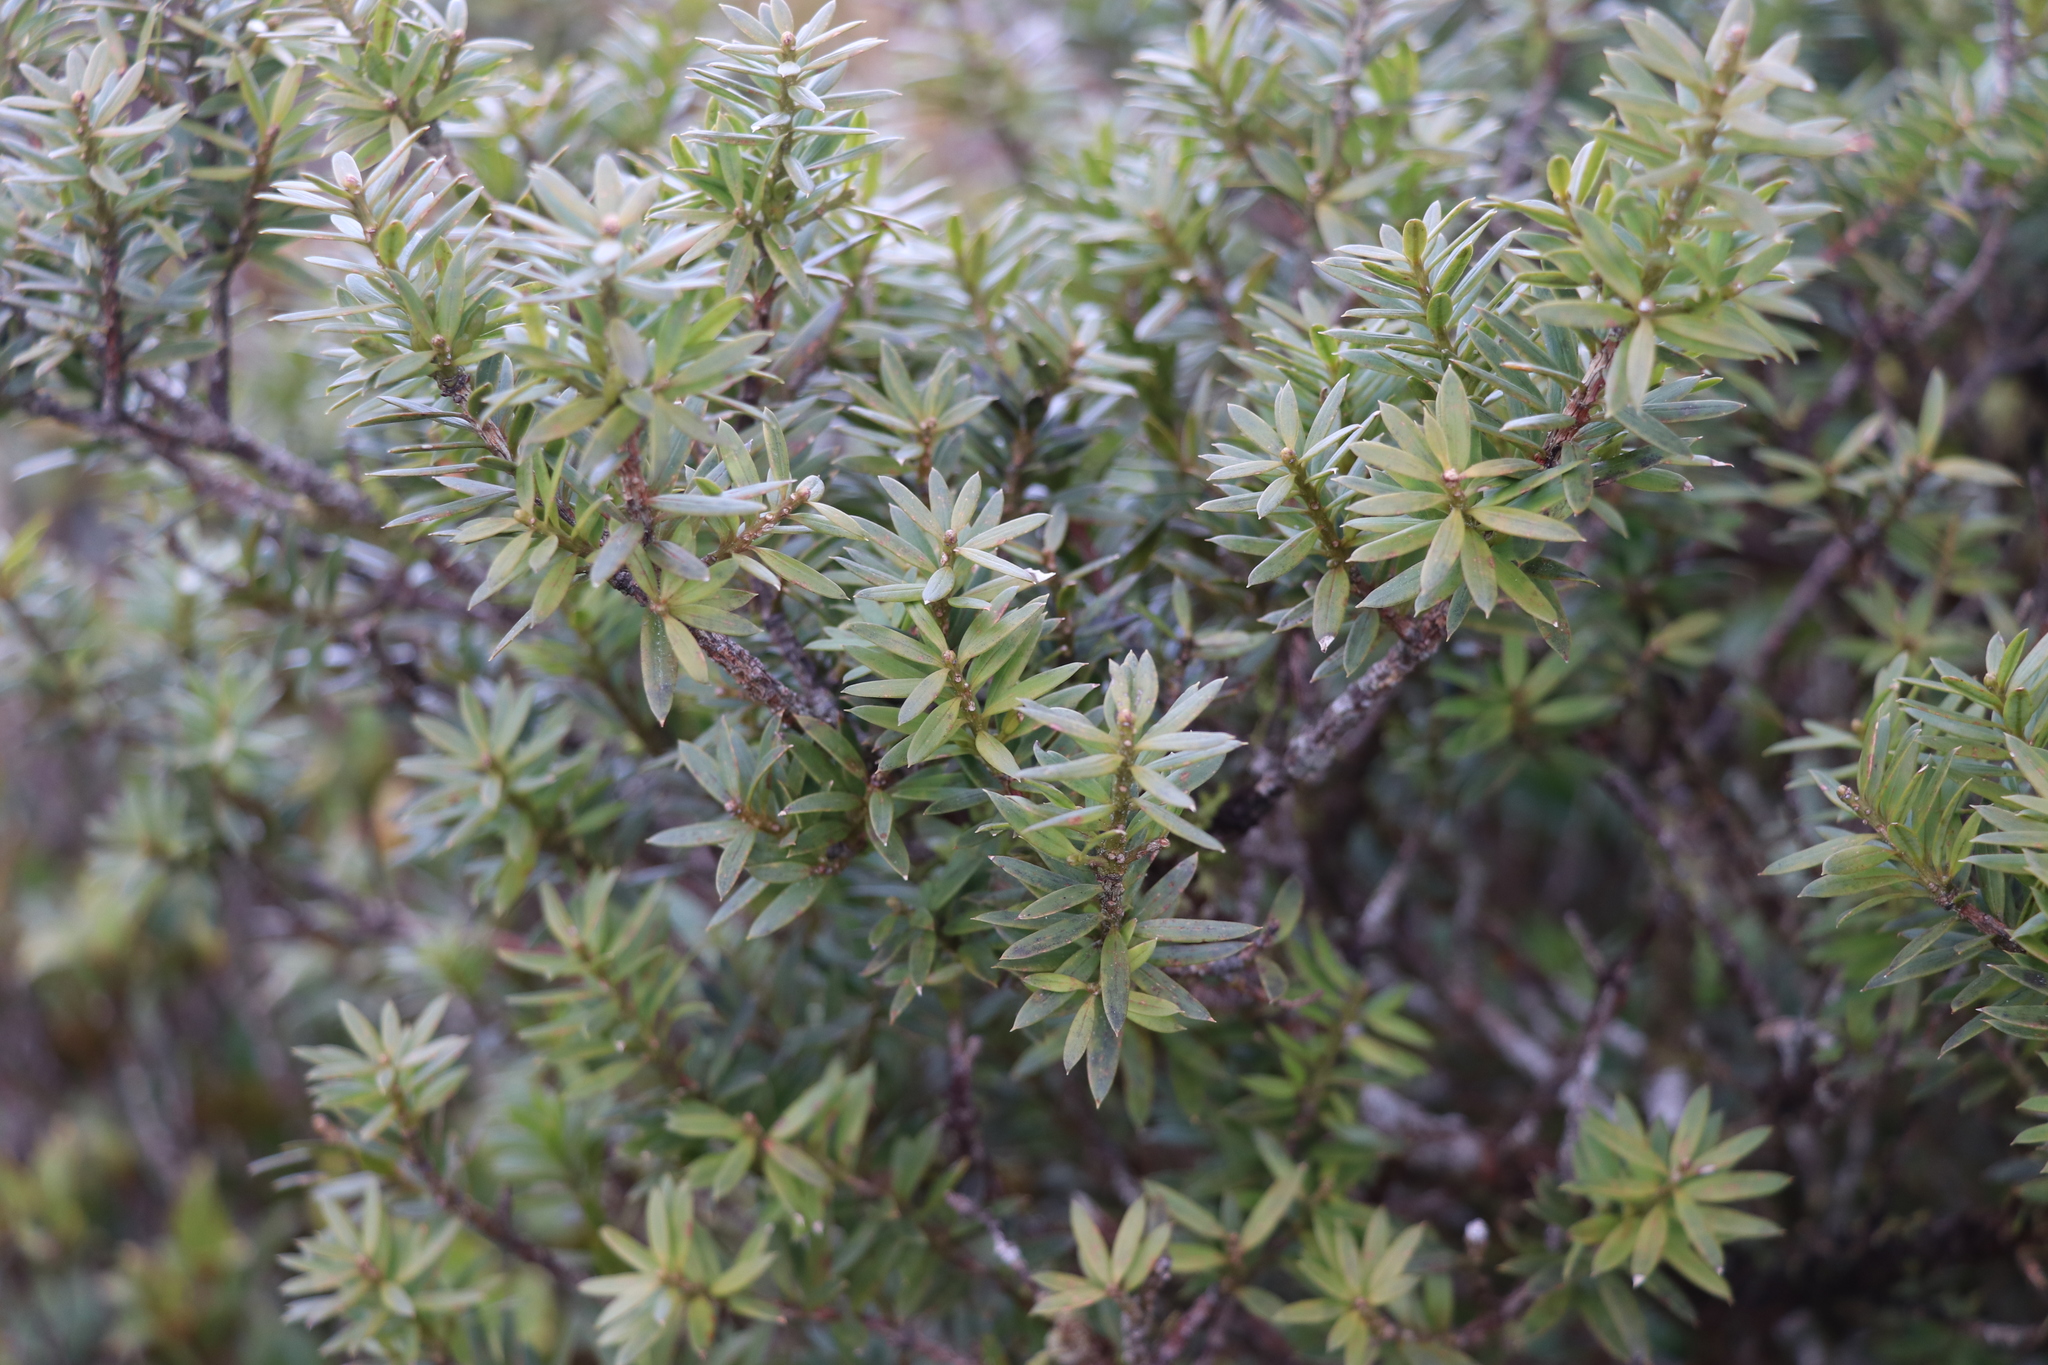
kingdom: Plantae
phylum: Tracheophyta
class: Pinopsida
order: Pinales
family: Podocarpaceae
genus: Podocarpus
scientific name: Podocarpus laetus
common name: Hall's totara
